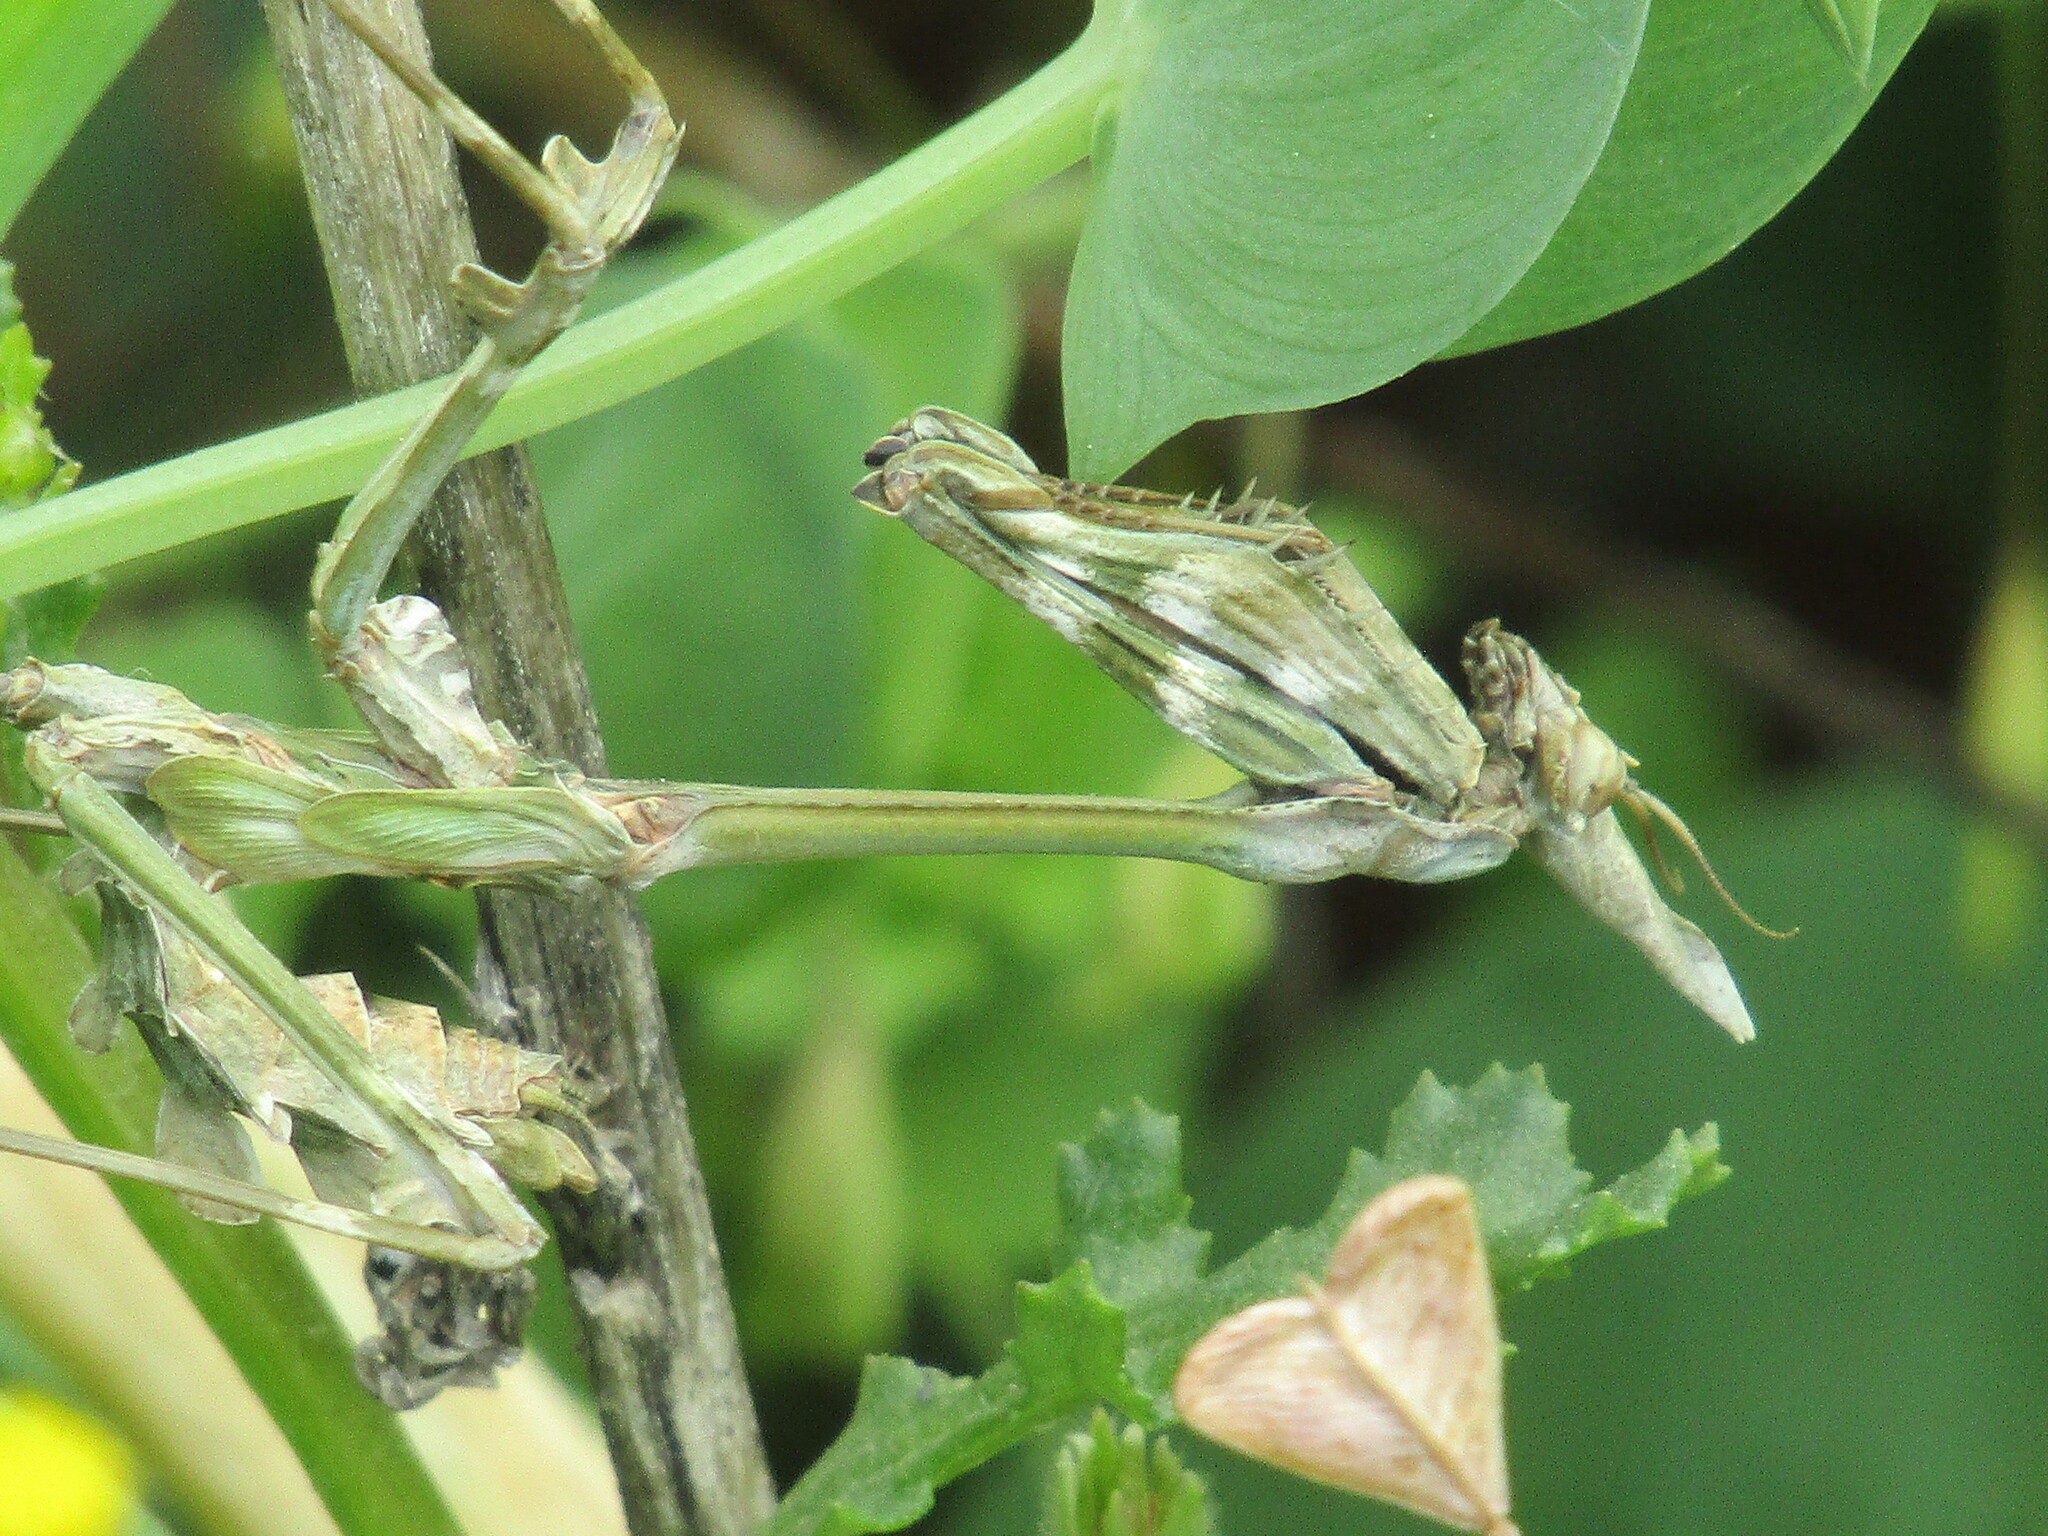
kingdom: Animalia
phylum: Arthropoda
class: Insecta
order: Mantodea
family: Empusidae
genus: Empusa
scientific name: Empusa fasciata
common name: Devil's mare
